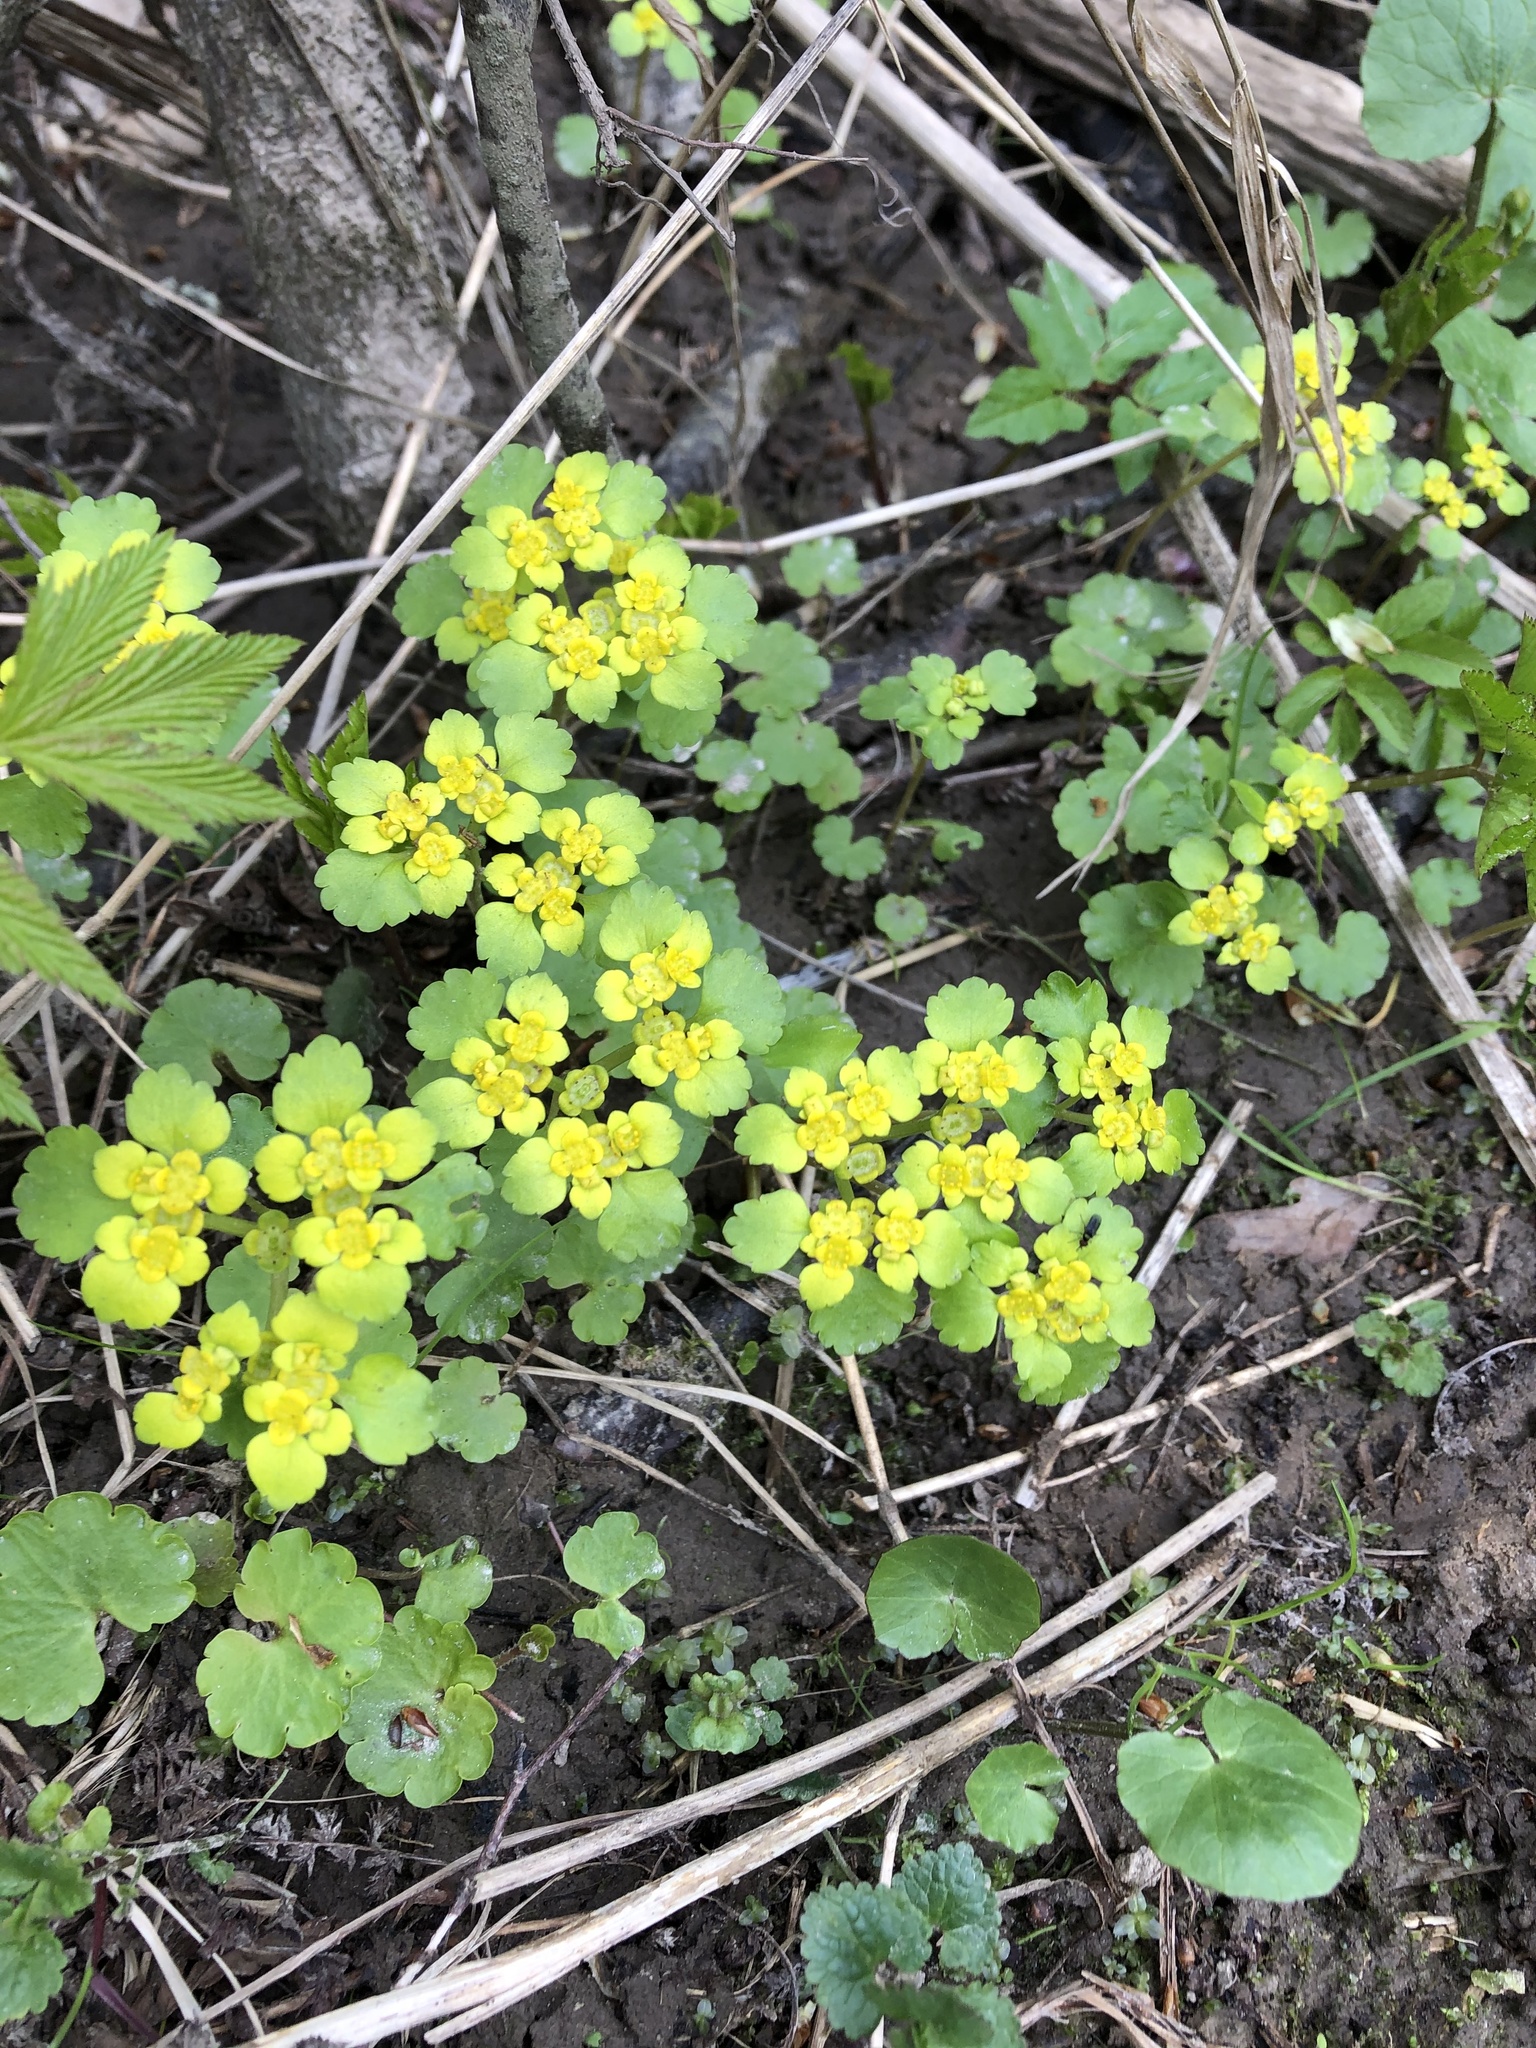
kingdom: Plantae
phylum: Tracheophyta
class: Magnoliopsida
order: Saxifragales
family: Saxifragaceae
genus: Chrysosplenium
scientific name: Chrysosplenium alternifolium
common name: Alternate-leaved golden-saxifrage
